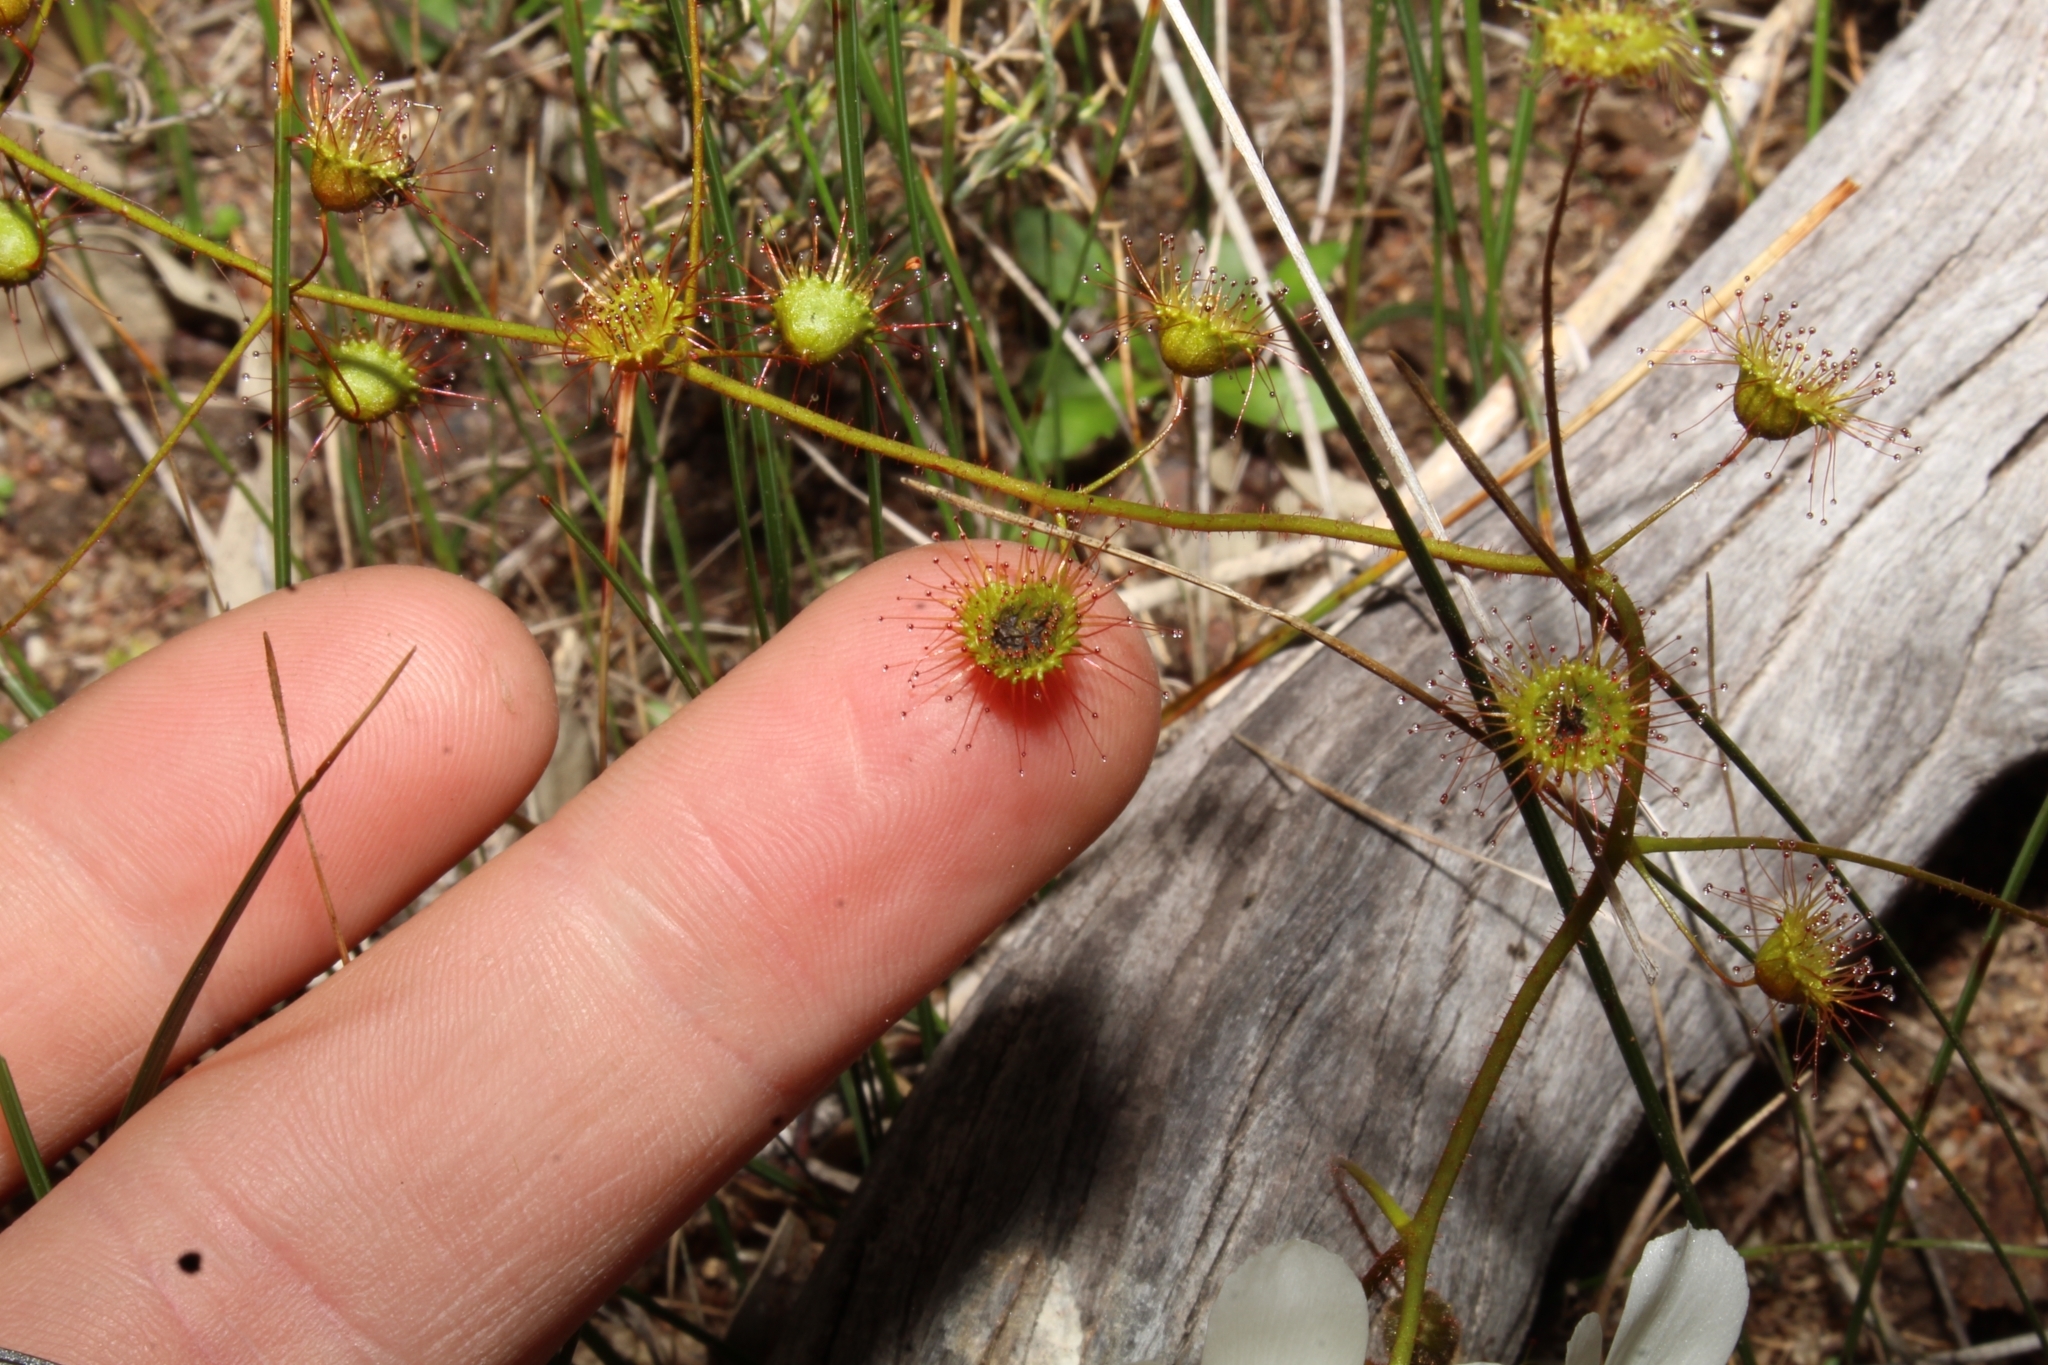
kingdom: Plantae
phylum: Tracheophyta
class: Magnoliopsida
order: Caryophyllales
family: Droseraceae
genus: Drosera
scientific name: Drosera macrantha
